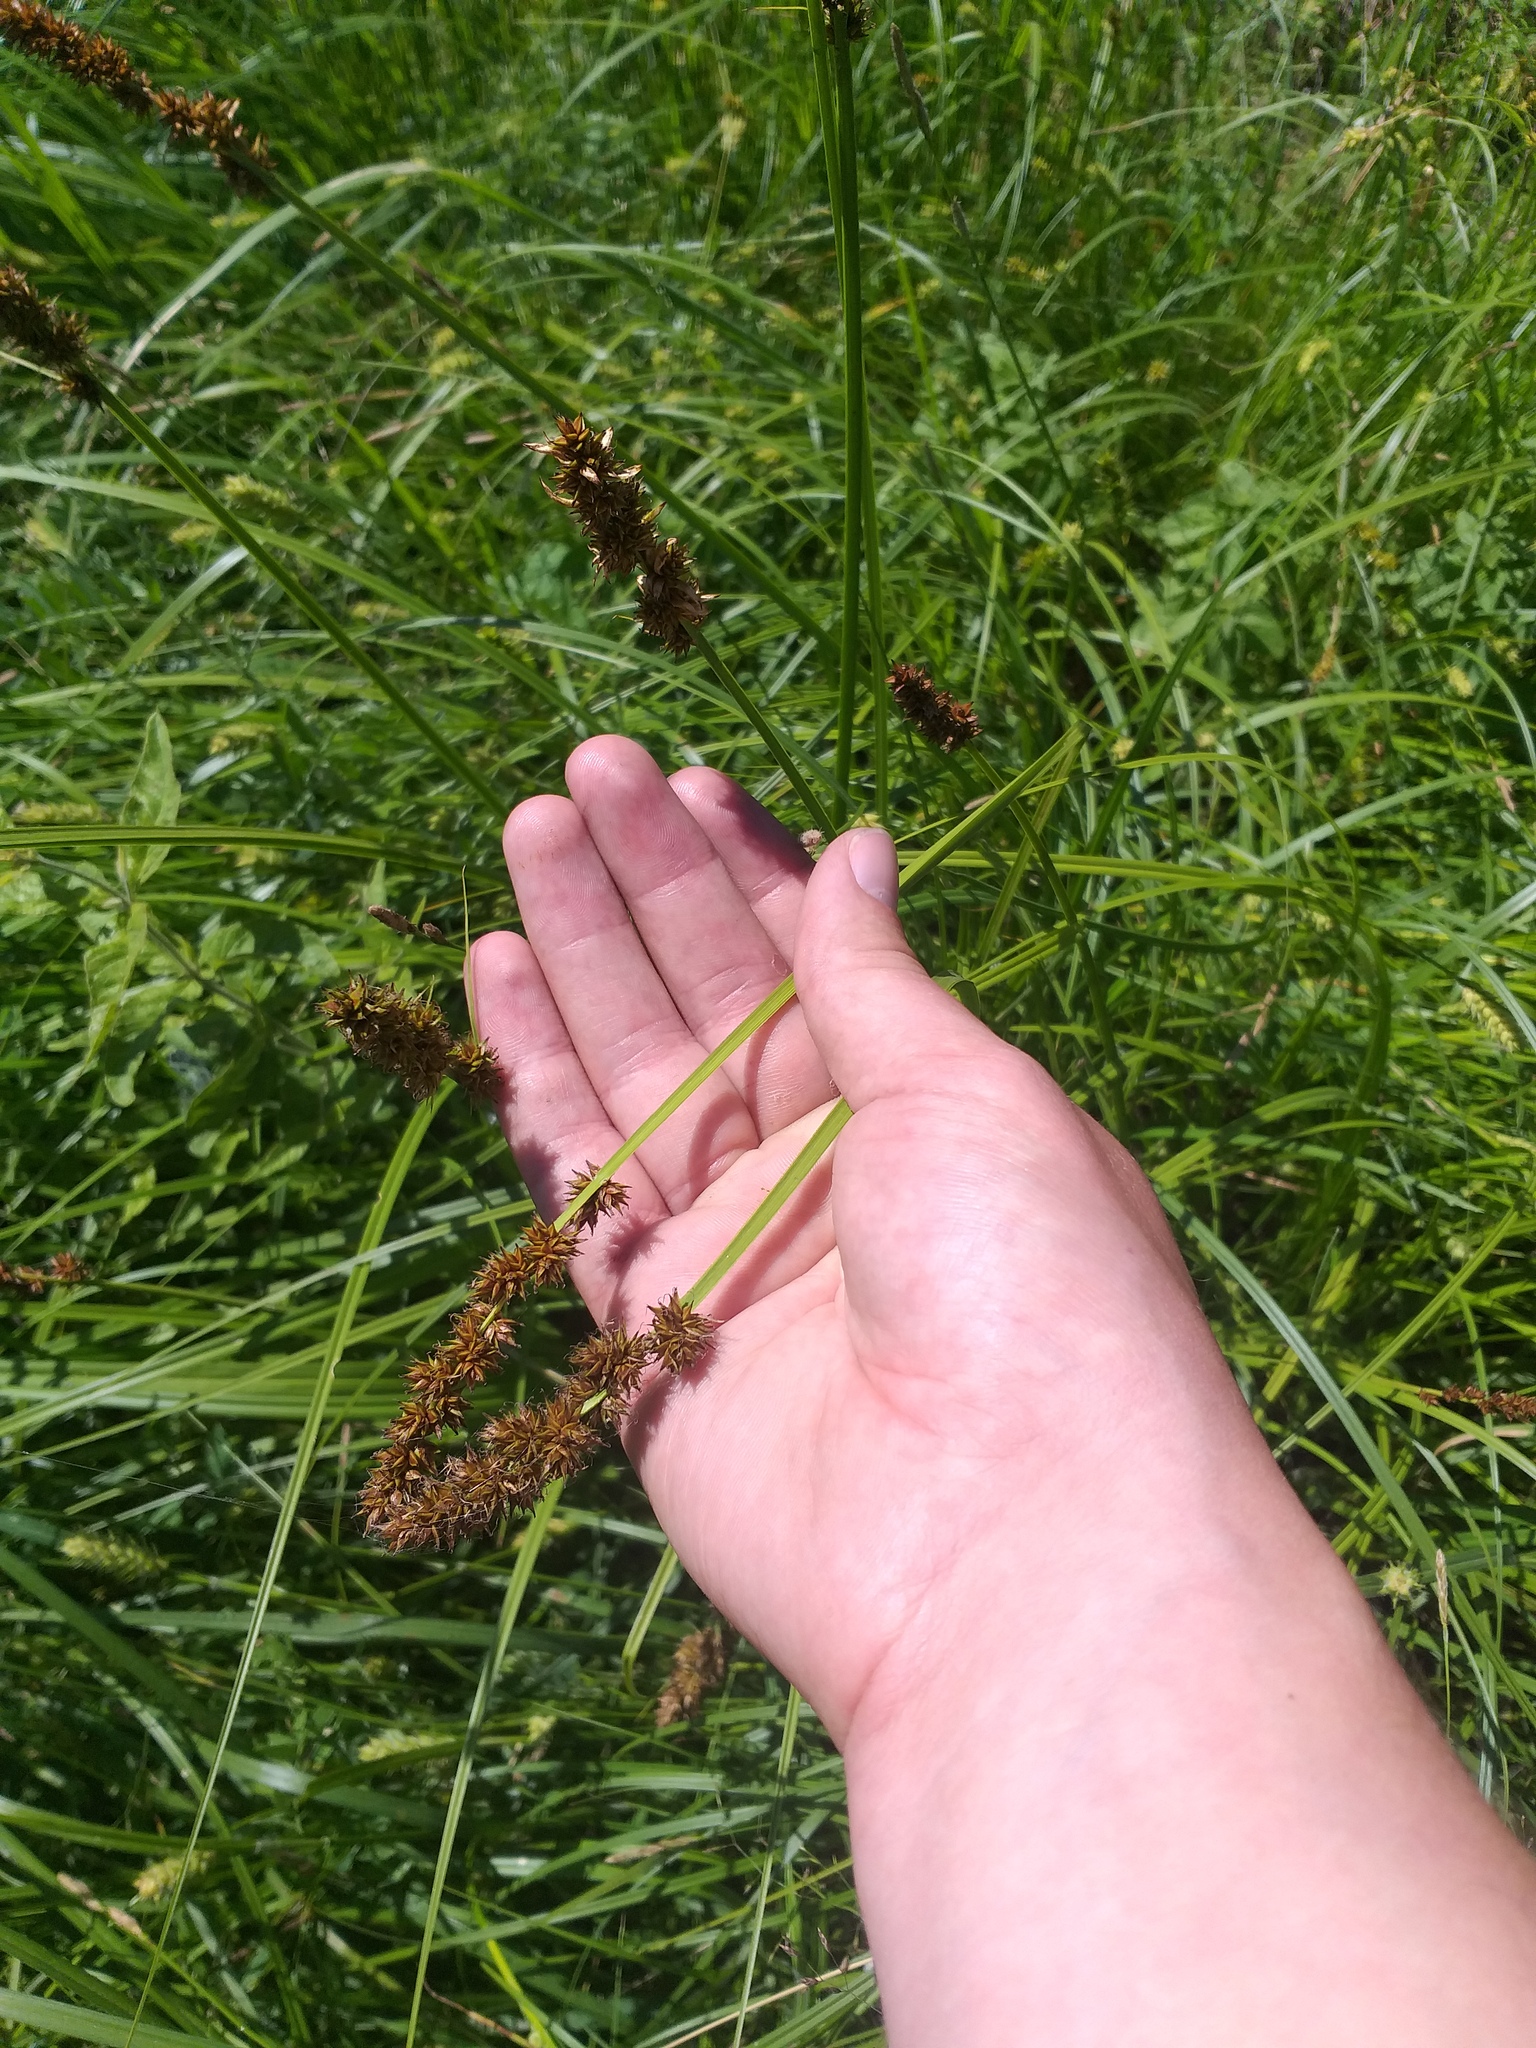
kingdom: Plantae
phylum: Tracheophyta
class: Liliopsida
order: Poales
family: Cyperaceae
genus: Carex
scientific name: Carex vulpina
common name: True fox-sedge
